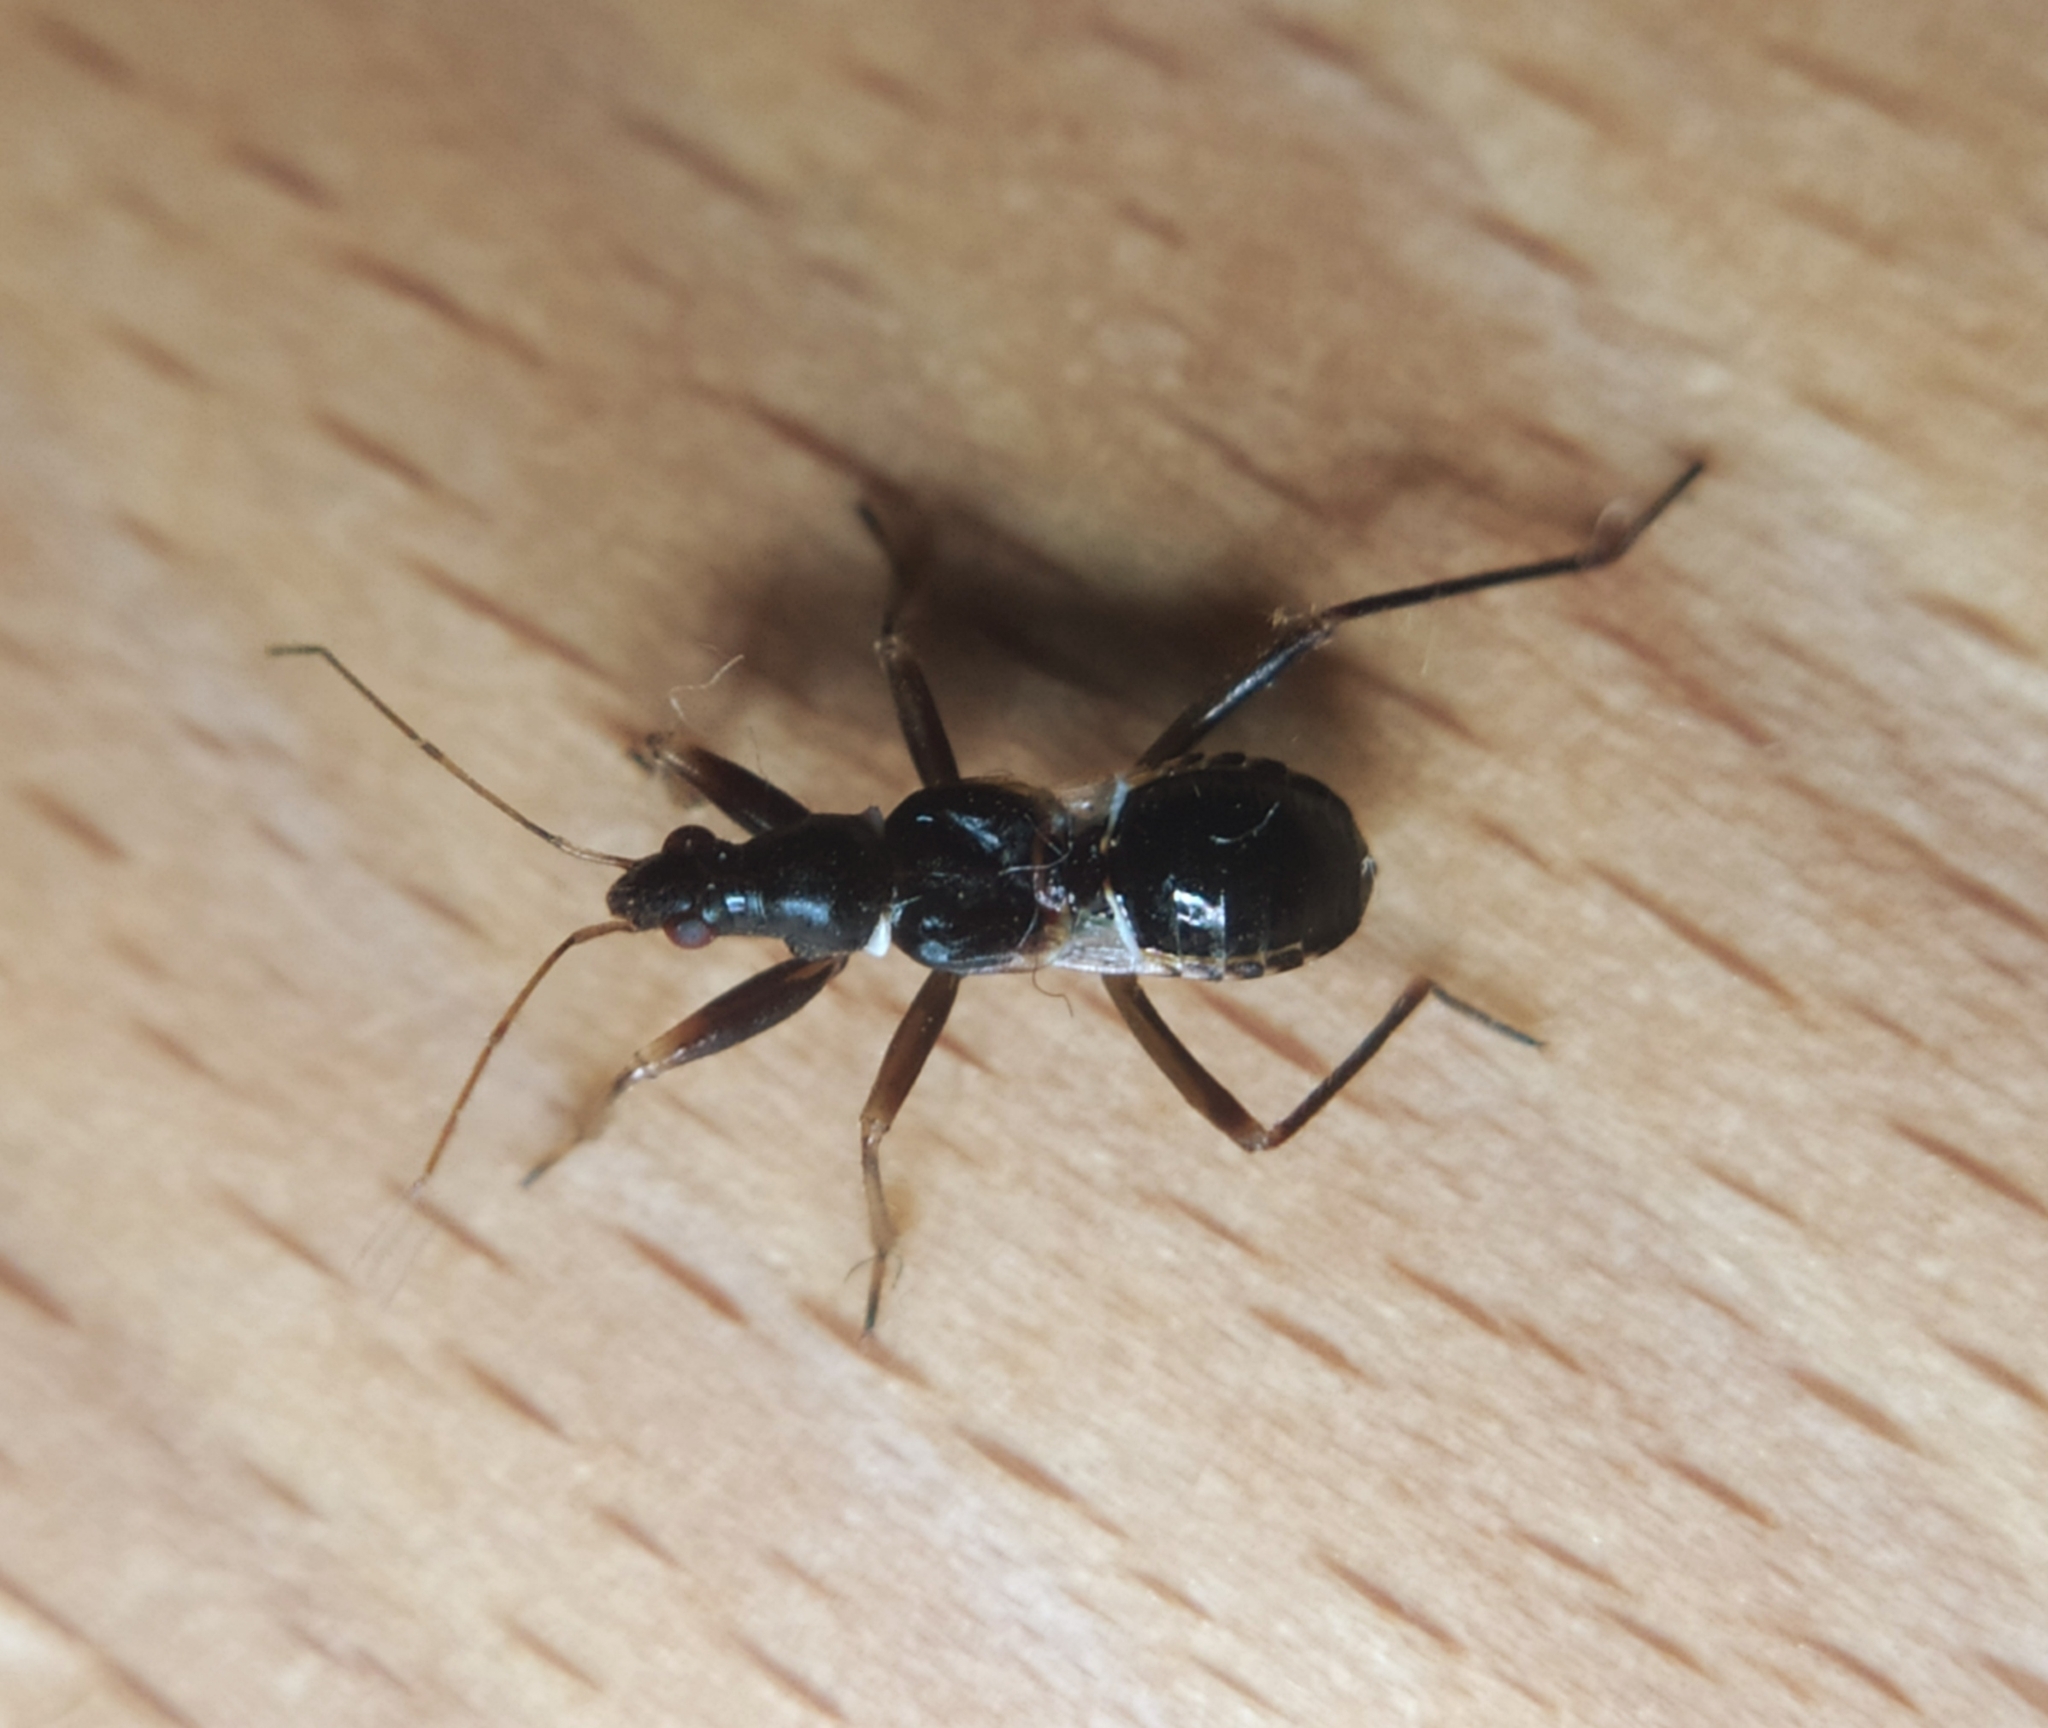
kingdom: Animalia
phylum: Arthropoda
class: Insecta
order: Hemiptera
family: Nabidae
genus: Himacerus
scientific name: Himacerus mirmicoides
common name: Ant damsel bug
